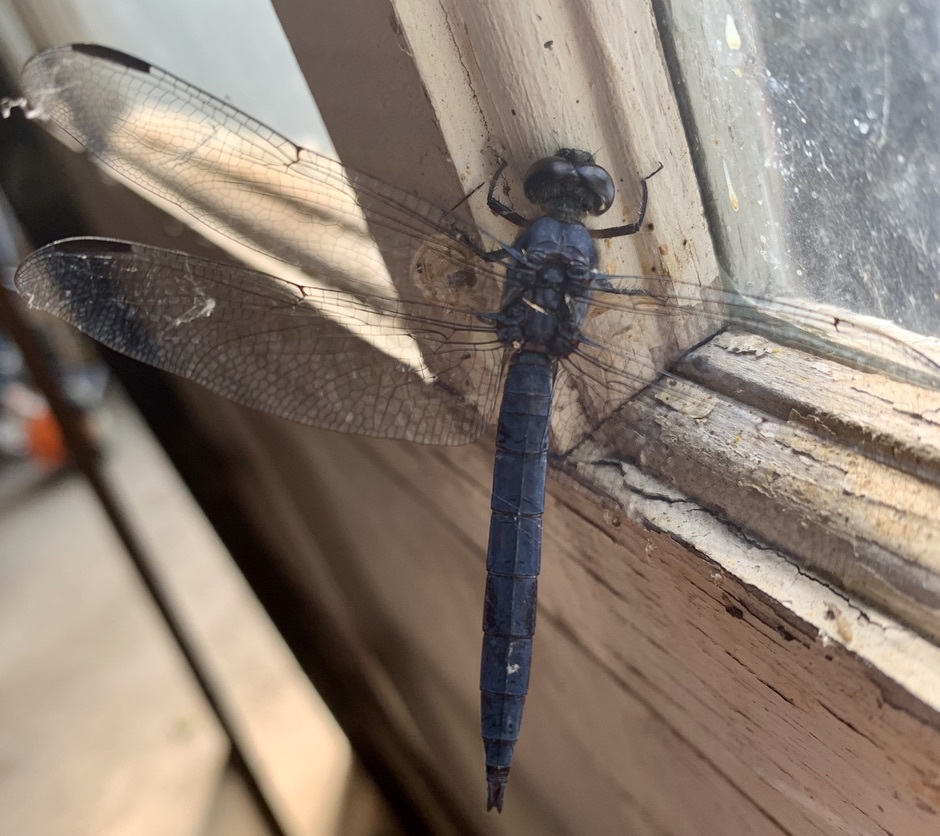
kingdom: Animalia
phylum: Arthropoda
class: Insecta
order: Odonata
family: Libellulidae
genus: Libellula
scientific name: Libellula incesta
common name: Slaty skimmer
